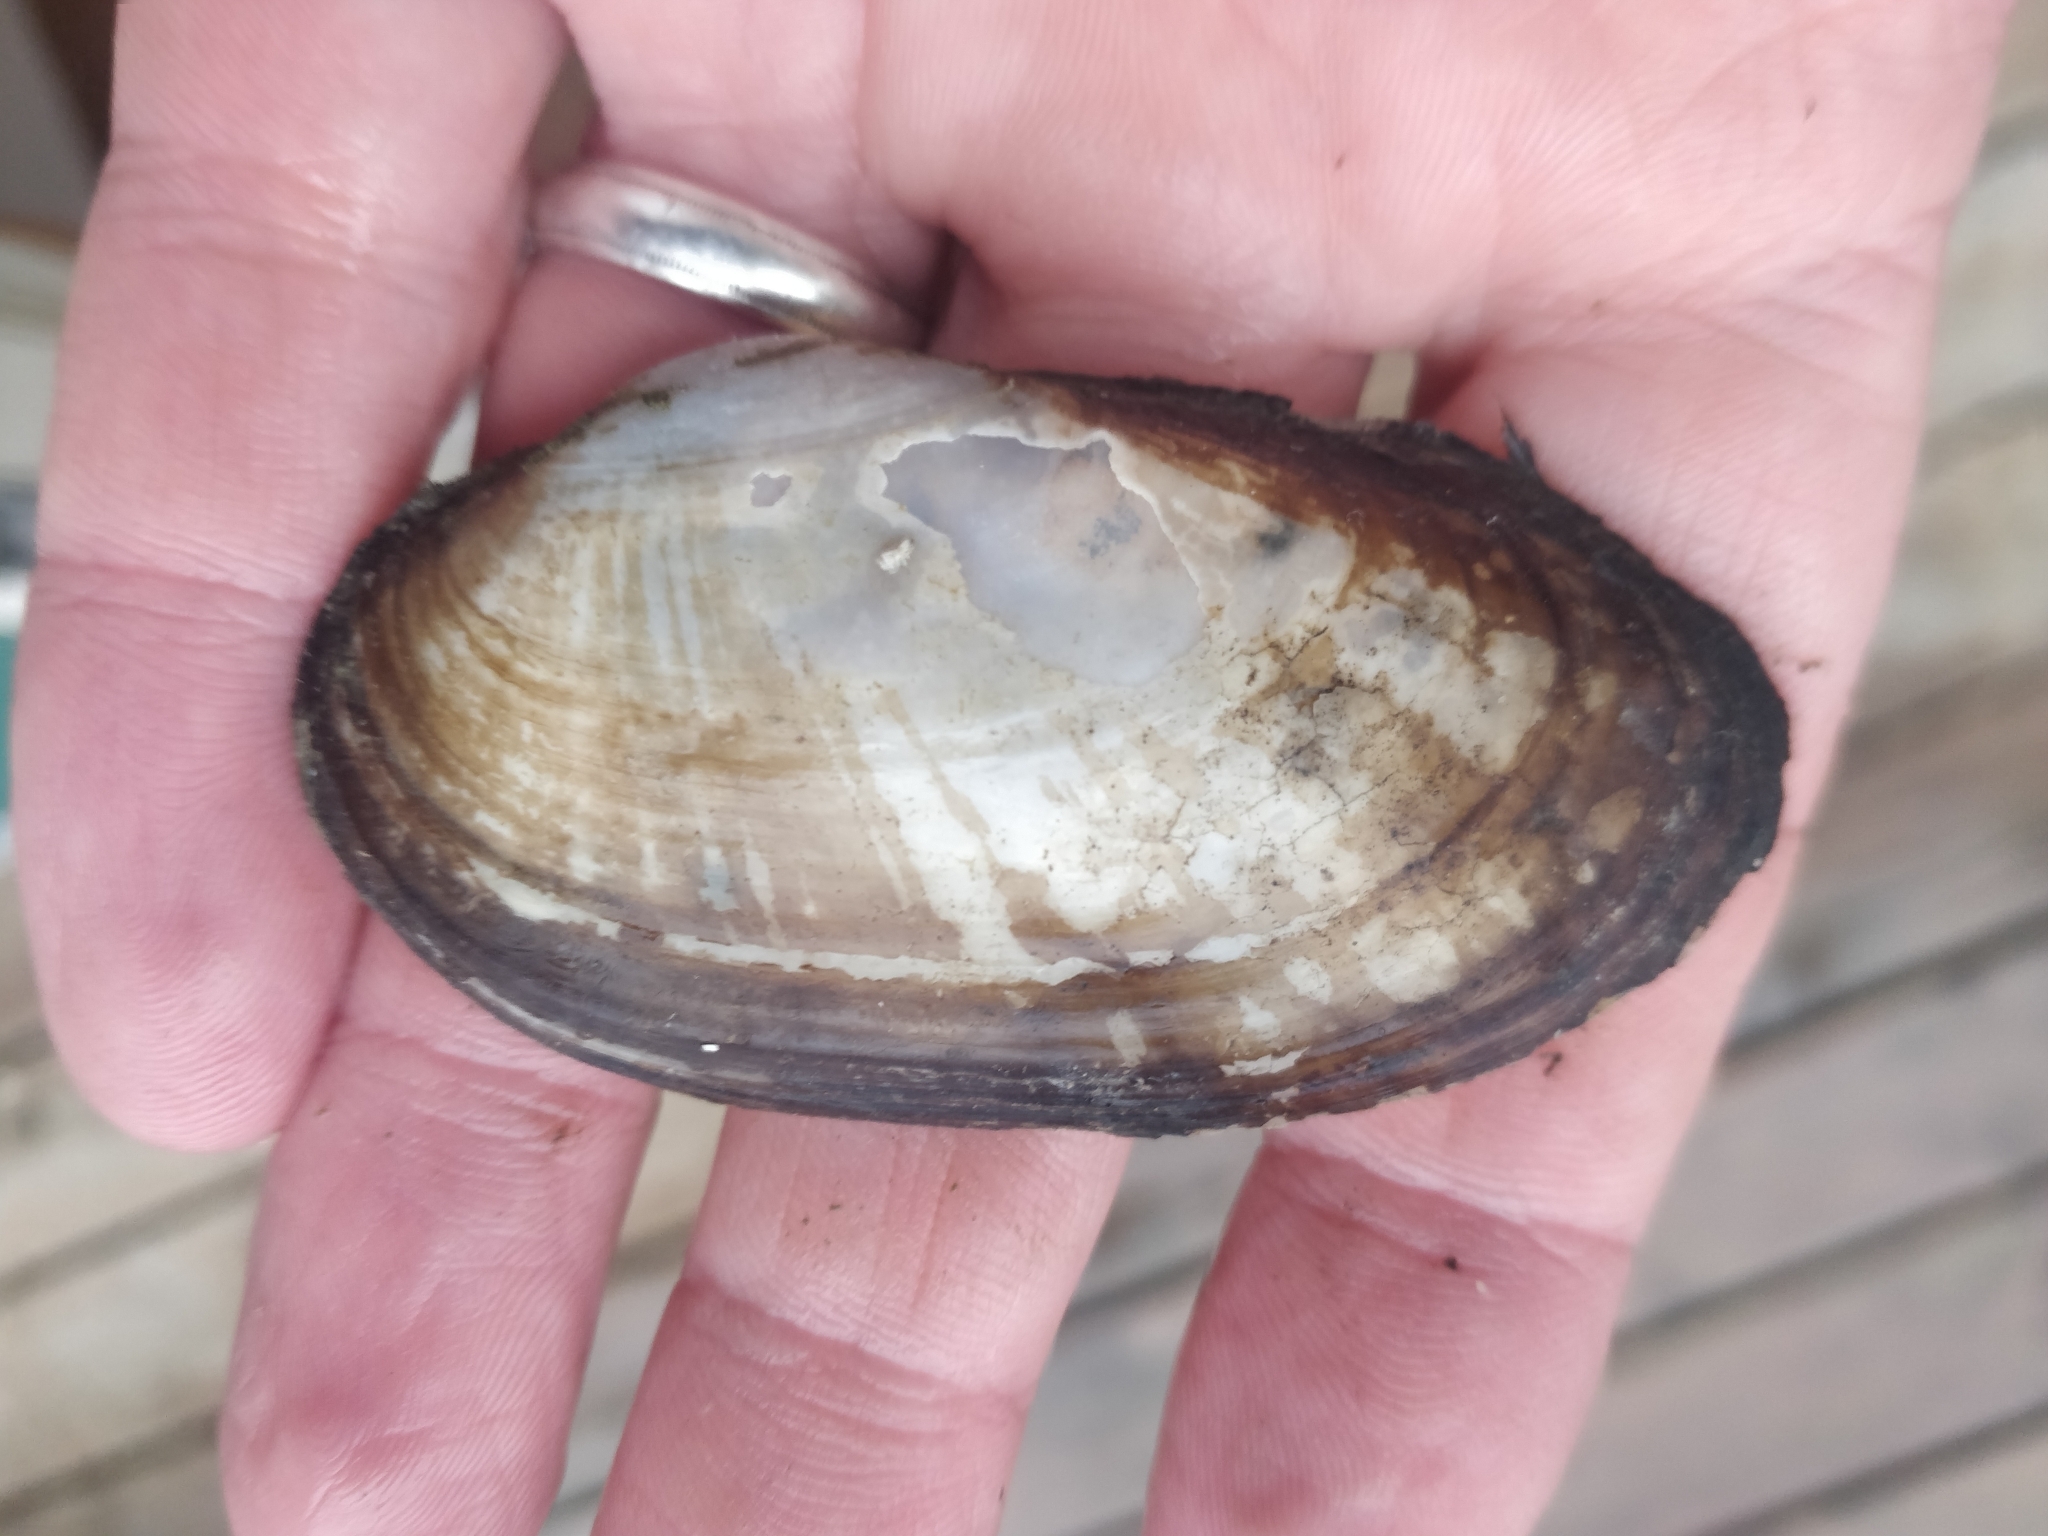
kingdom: Animalia
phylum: Mollusca
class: Bivalvia
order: Unionida
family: Unionidae
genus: Lampsilis
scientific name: Lampsilis siliquoidea
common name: Fatmucket
